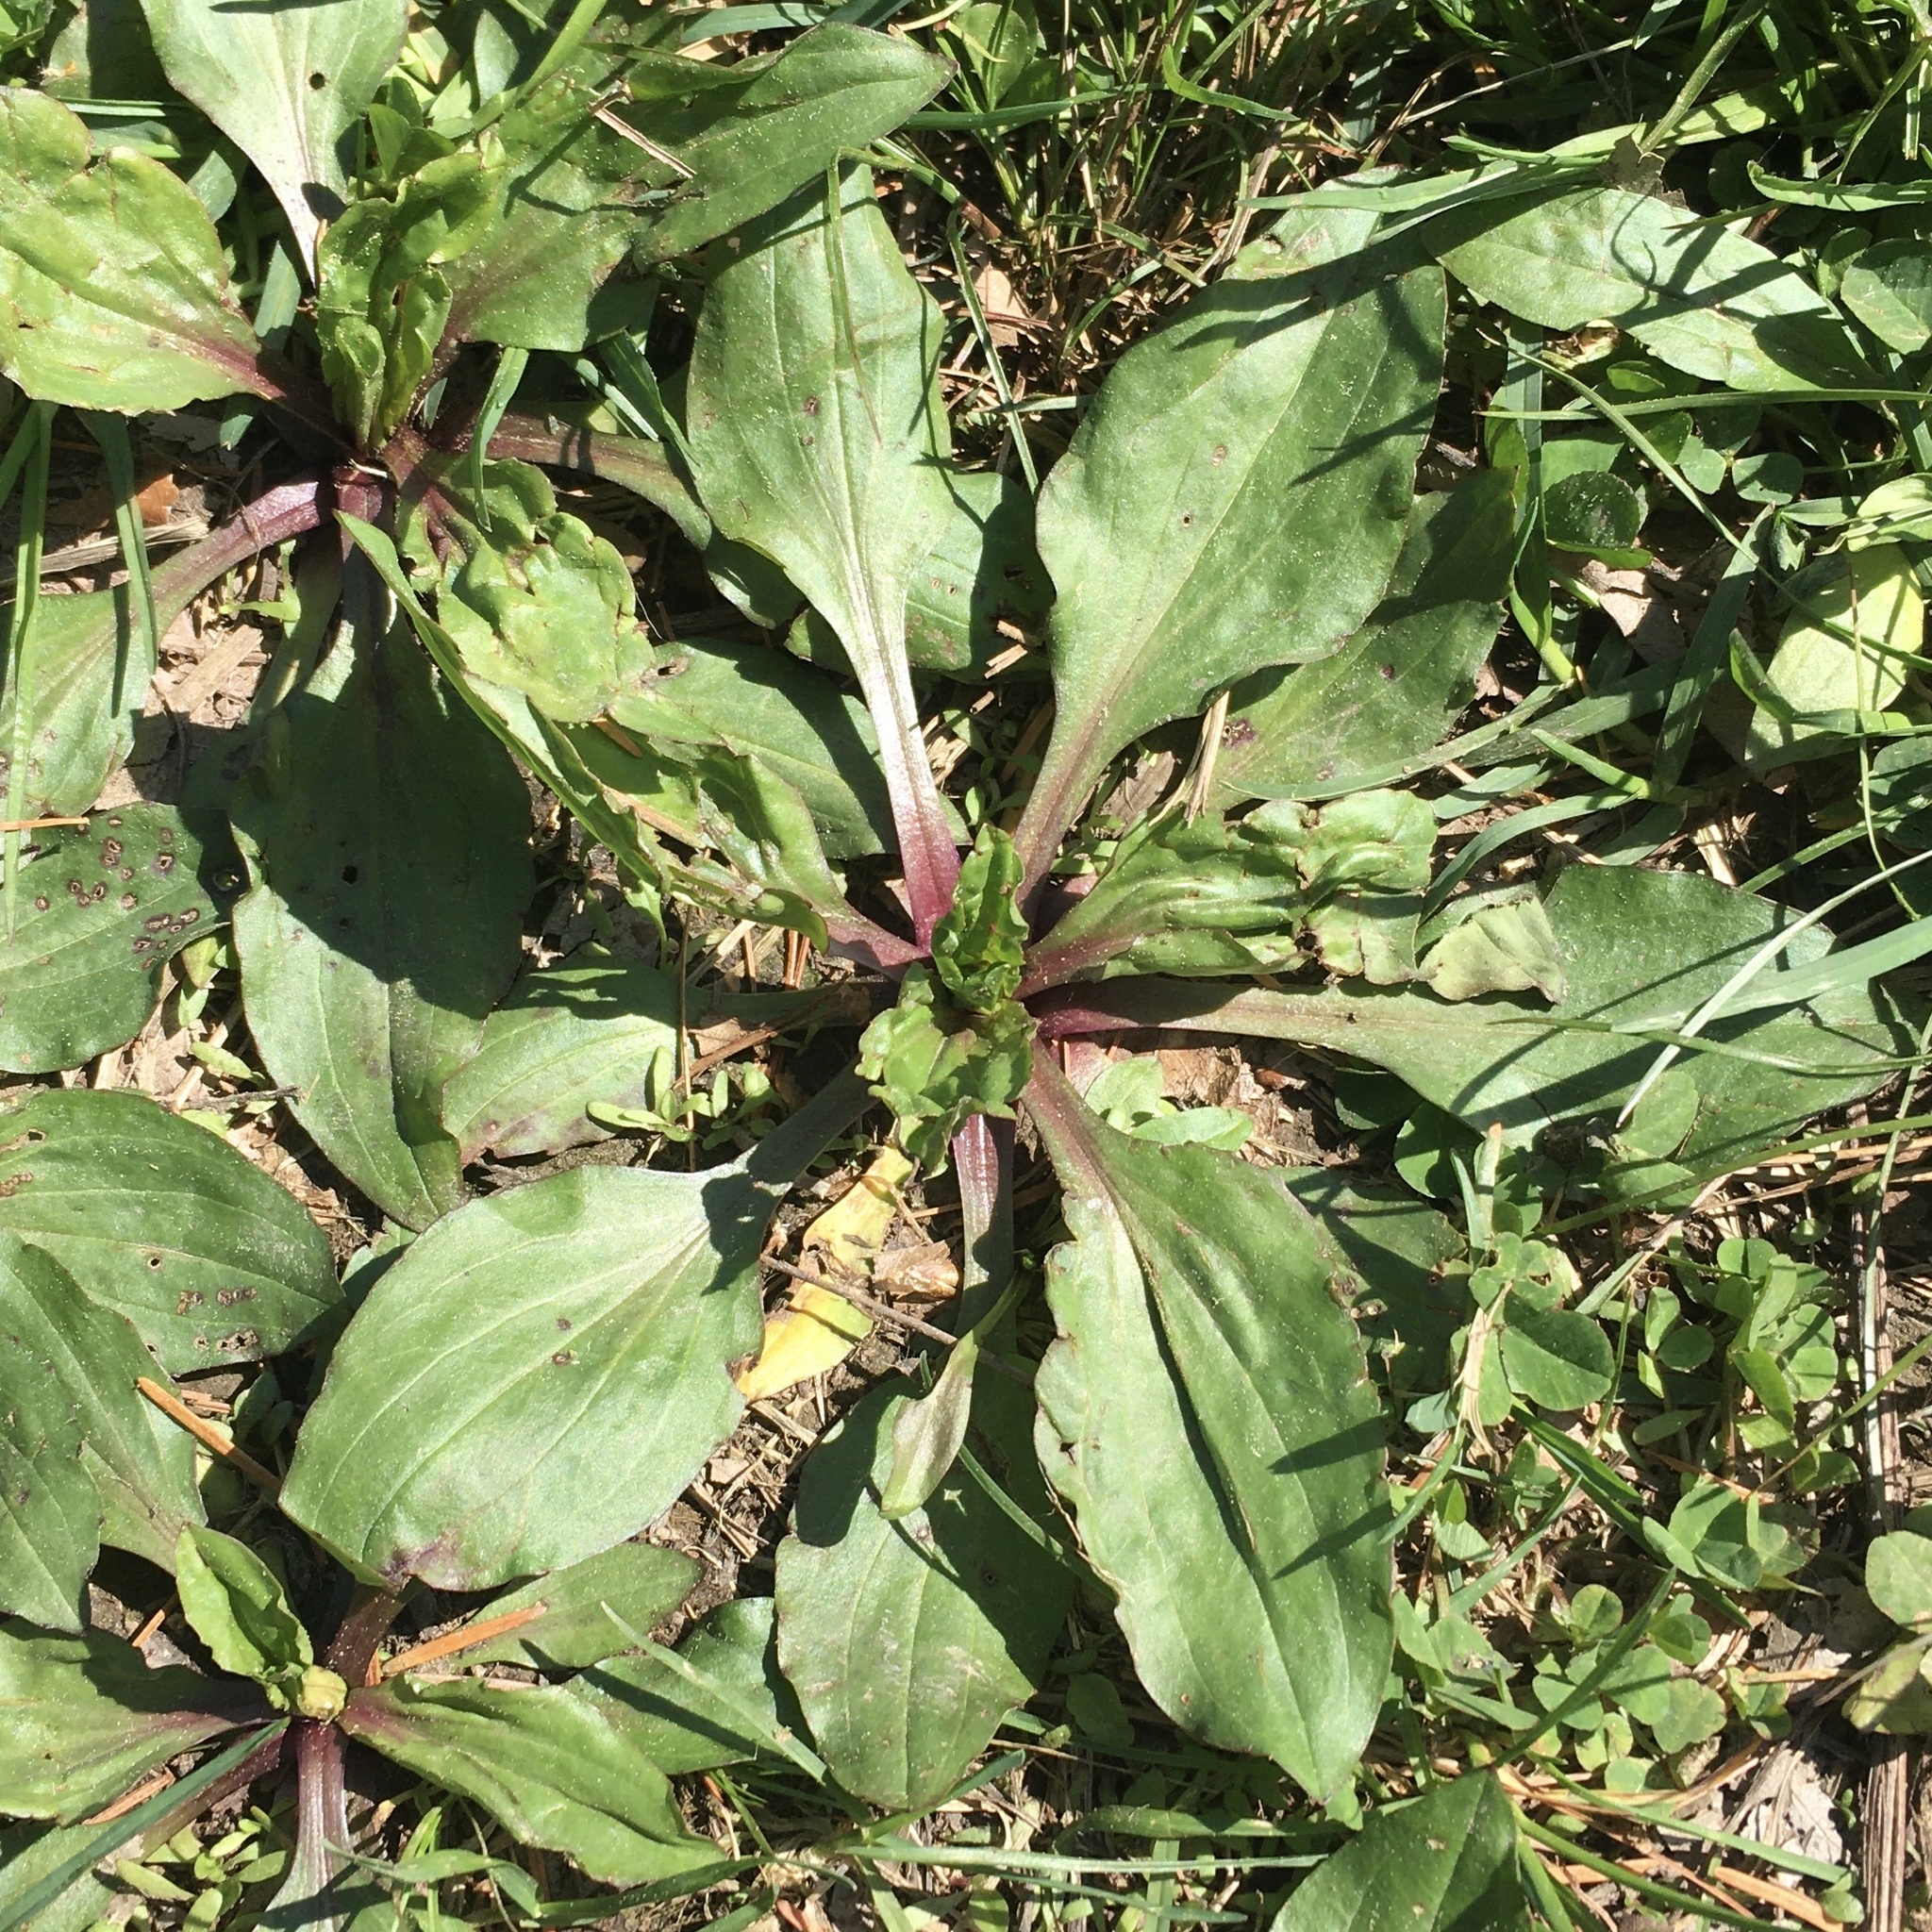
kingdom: Plantae
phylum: Tracheophyta
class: Magnoliopsida
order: Lamiales
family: Plantaginaceae
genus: Plantago
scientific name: Plantago rugelii
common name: American plantain
